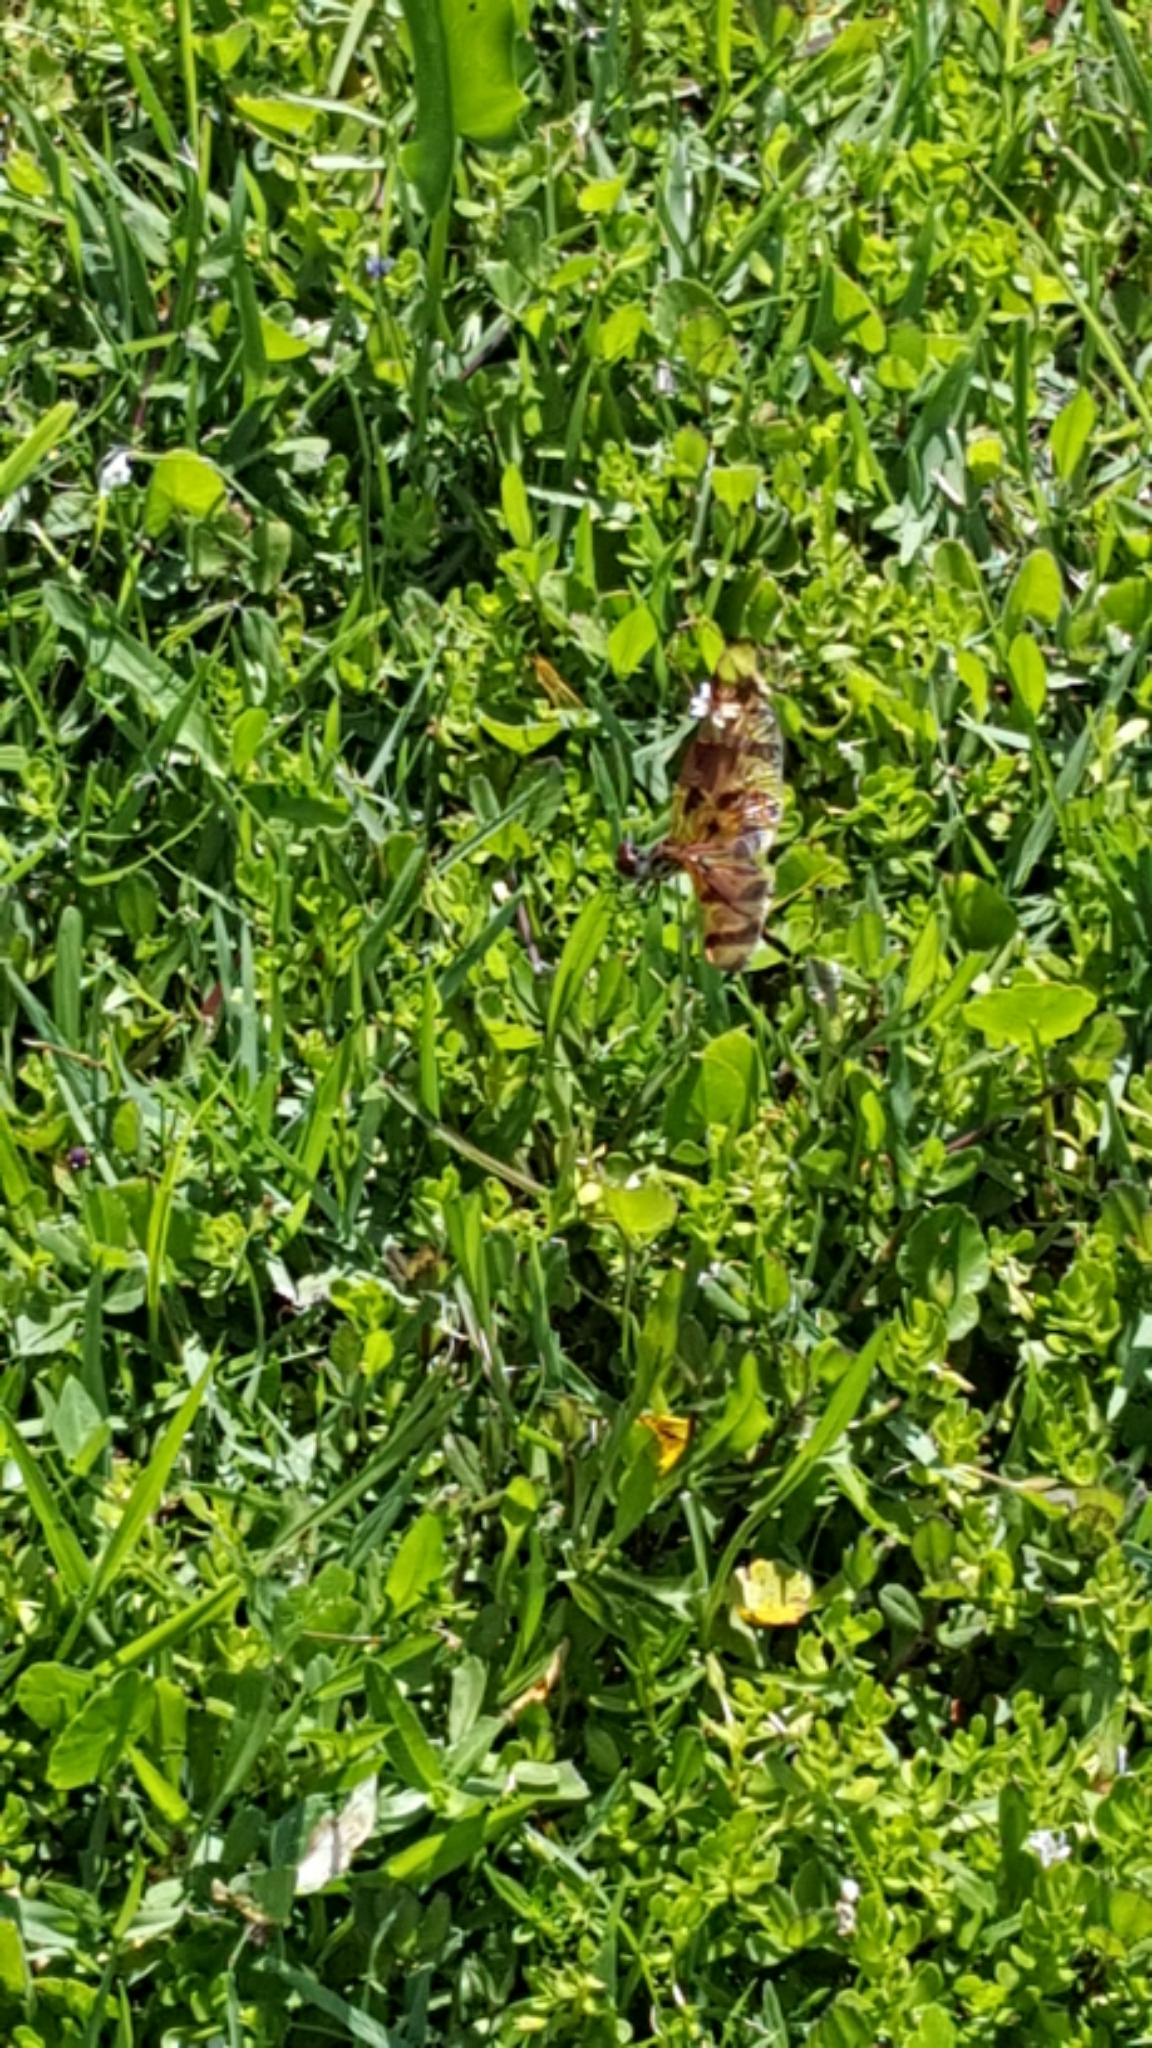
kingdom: Animalia
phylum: Arthropoda
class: Insecta
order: Odonata
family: Libellulidae
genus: Celithemis
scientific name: Celithemis eponina
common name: Halloween pennant
